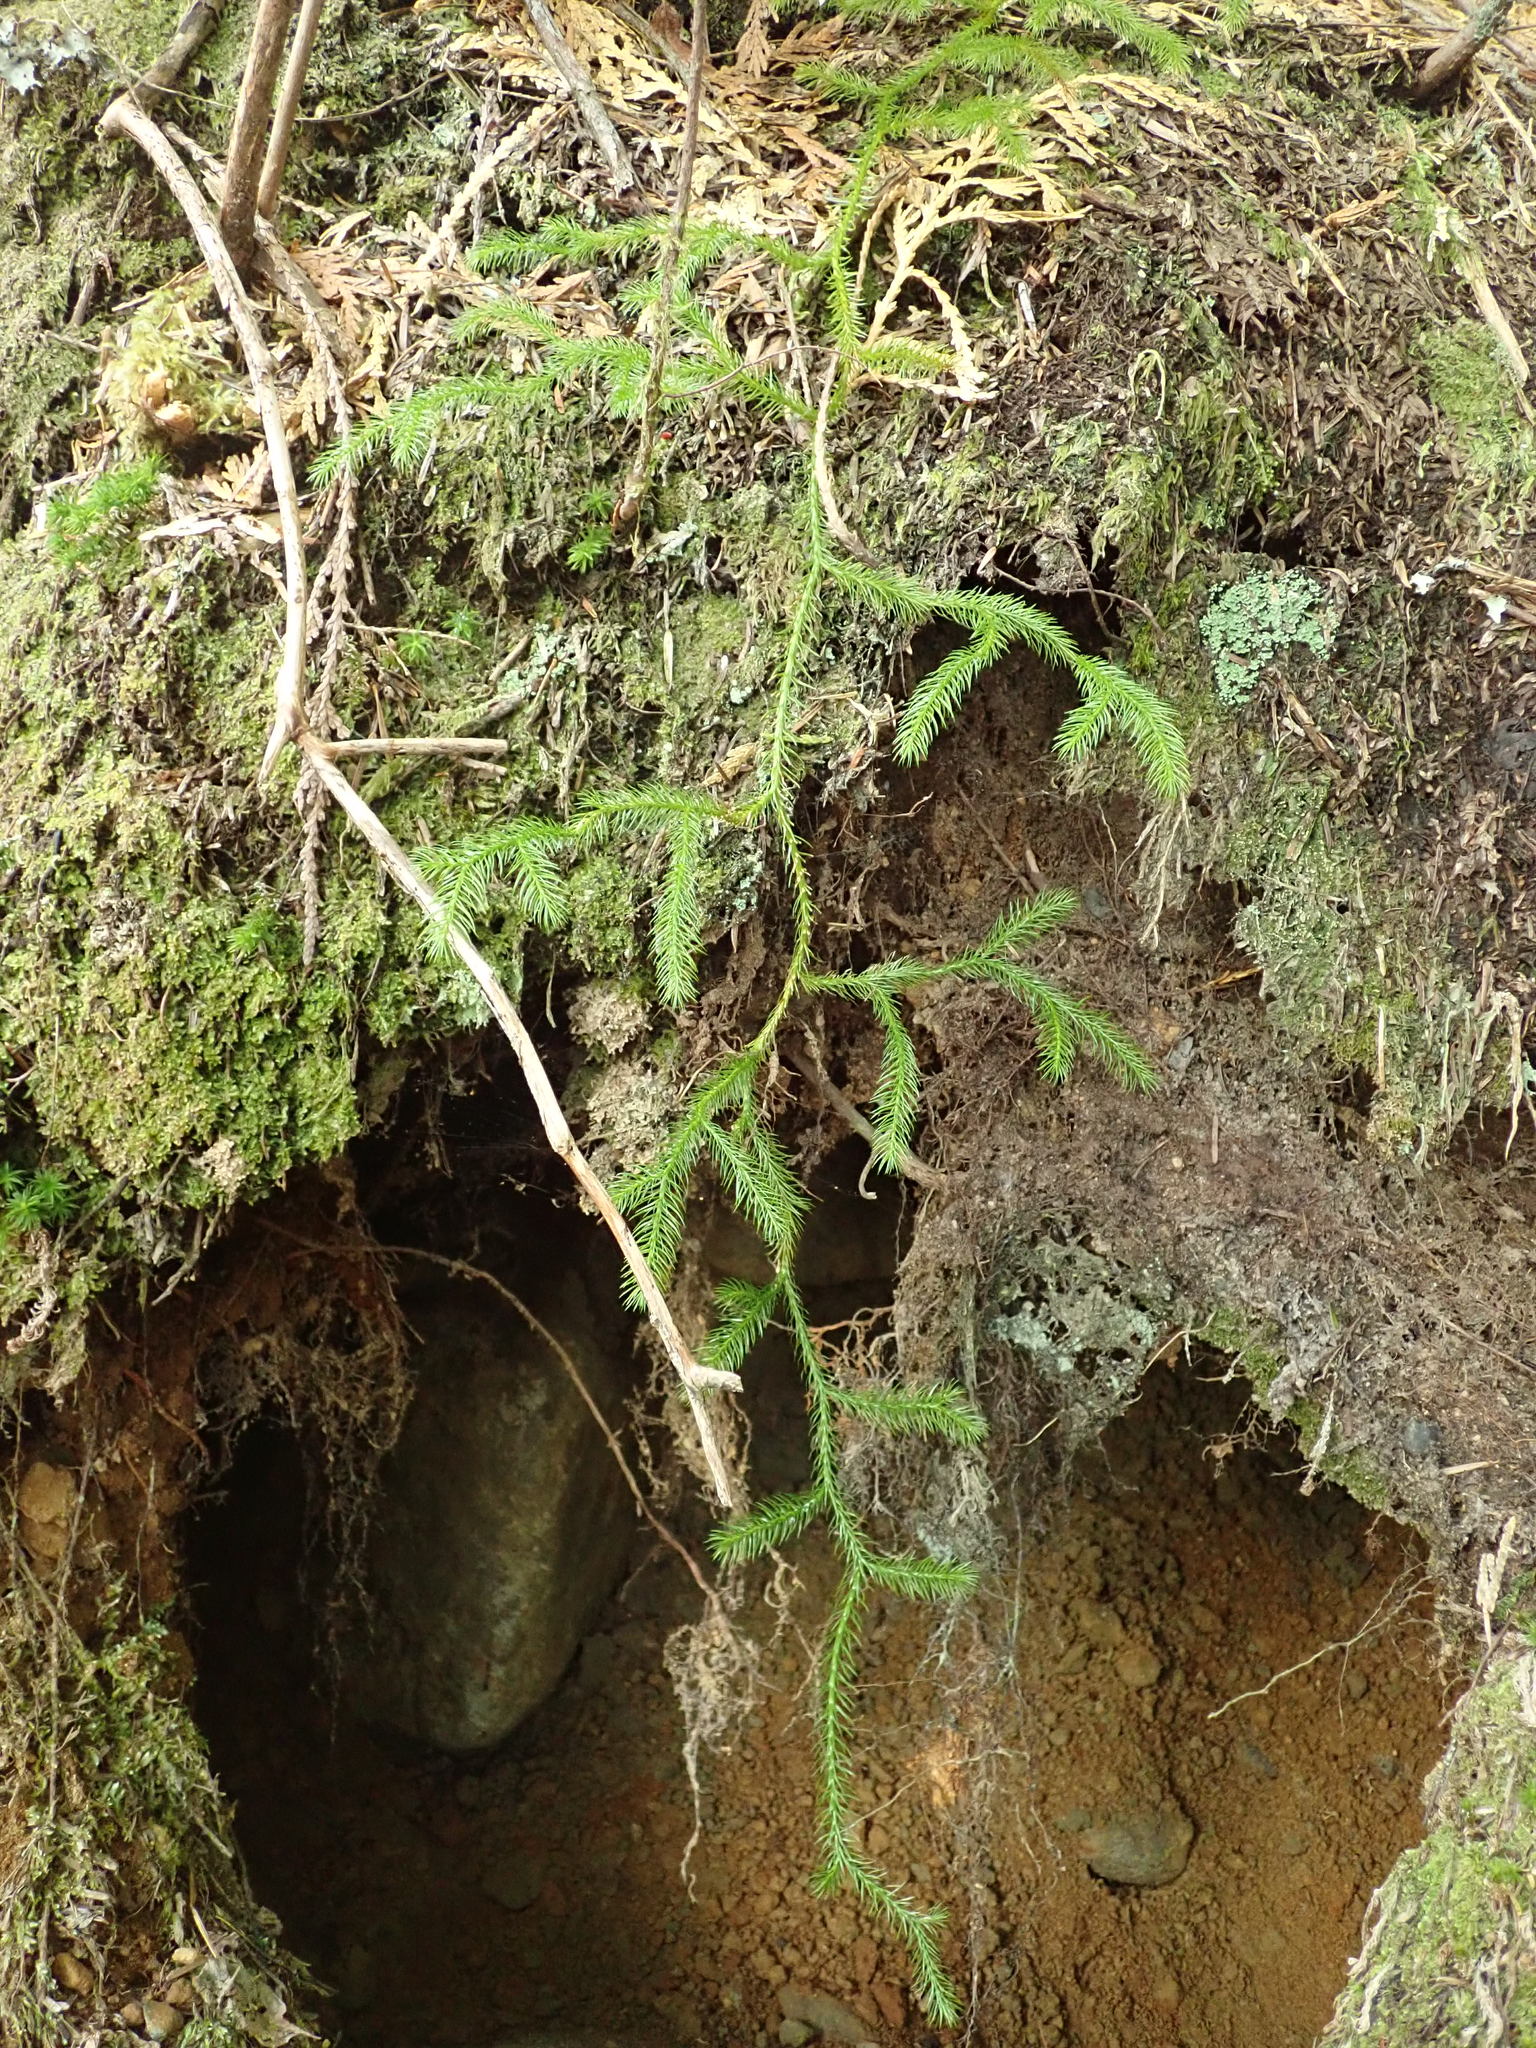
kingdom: Plantae
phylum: Tracheophyta
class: Lycopodiopsida
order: Lycopodiales
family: Lycopodiaceae
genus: Lycopodium
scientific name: Lycopodium clavatum
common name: Stag's-horn clubmoss
